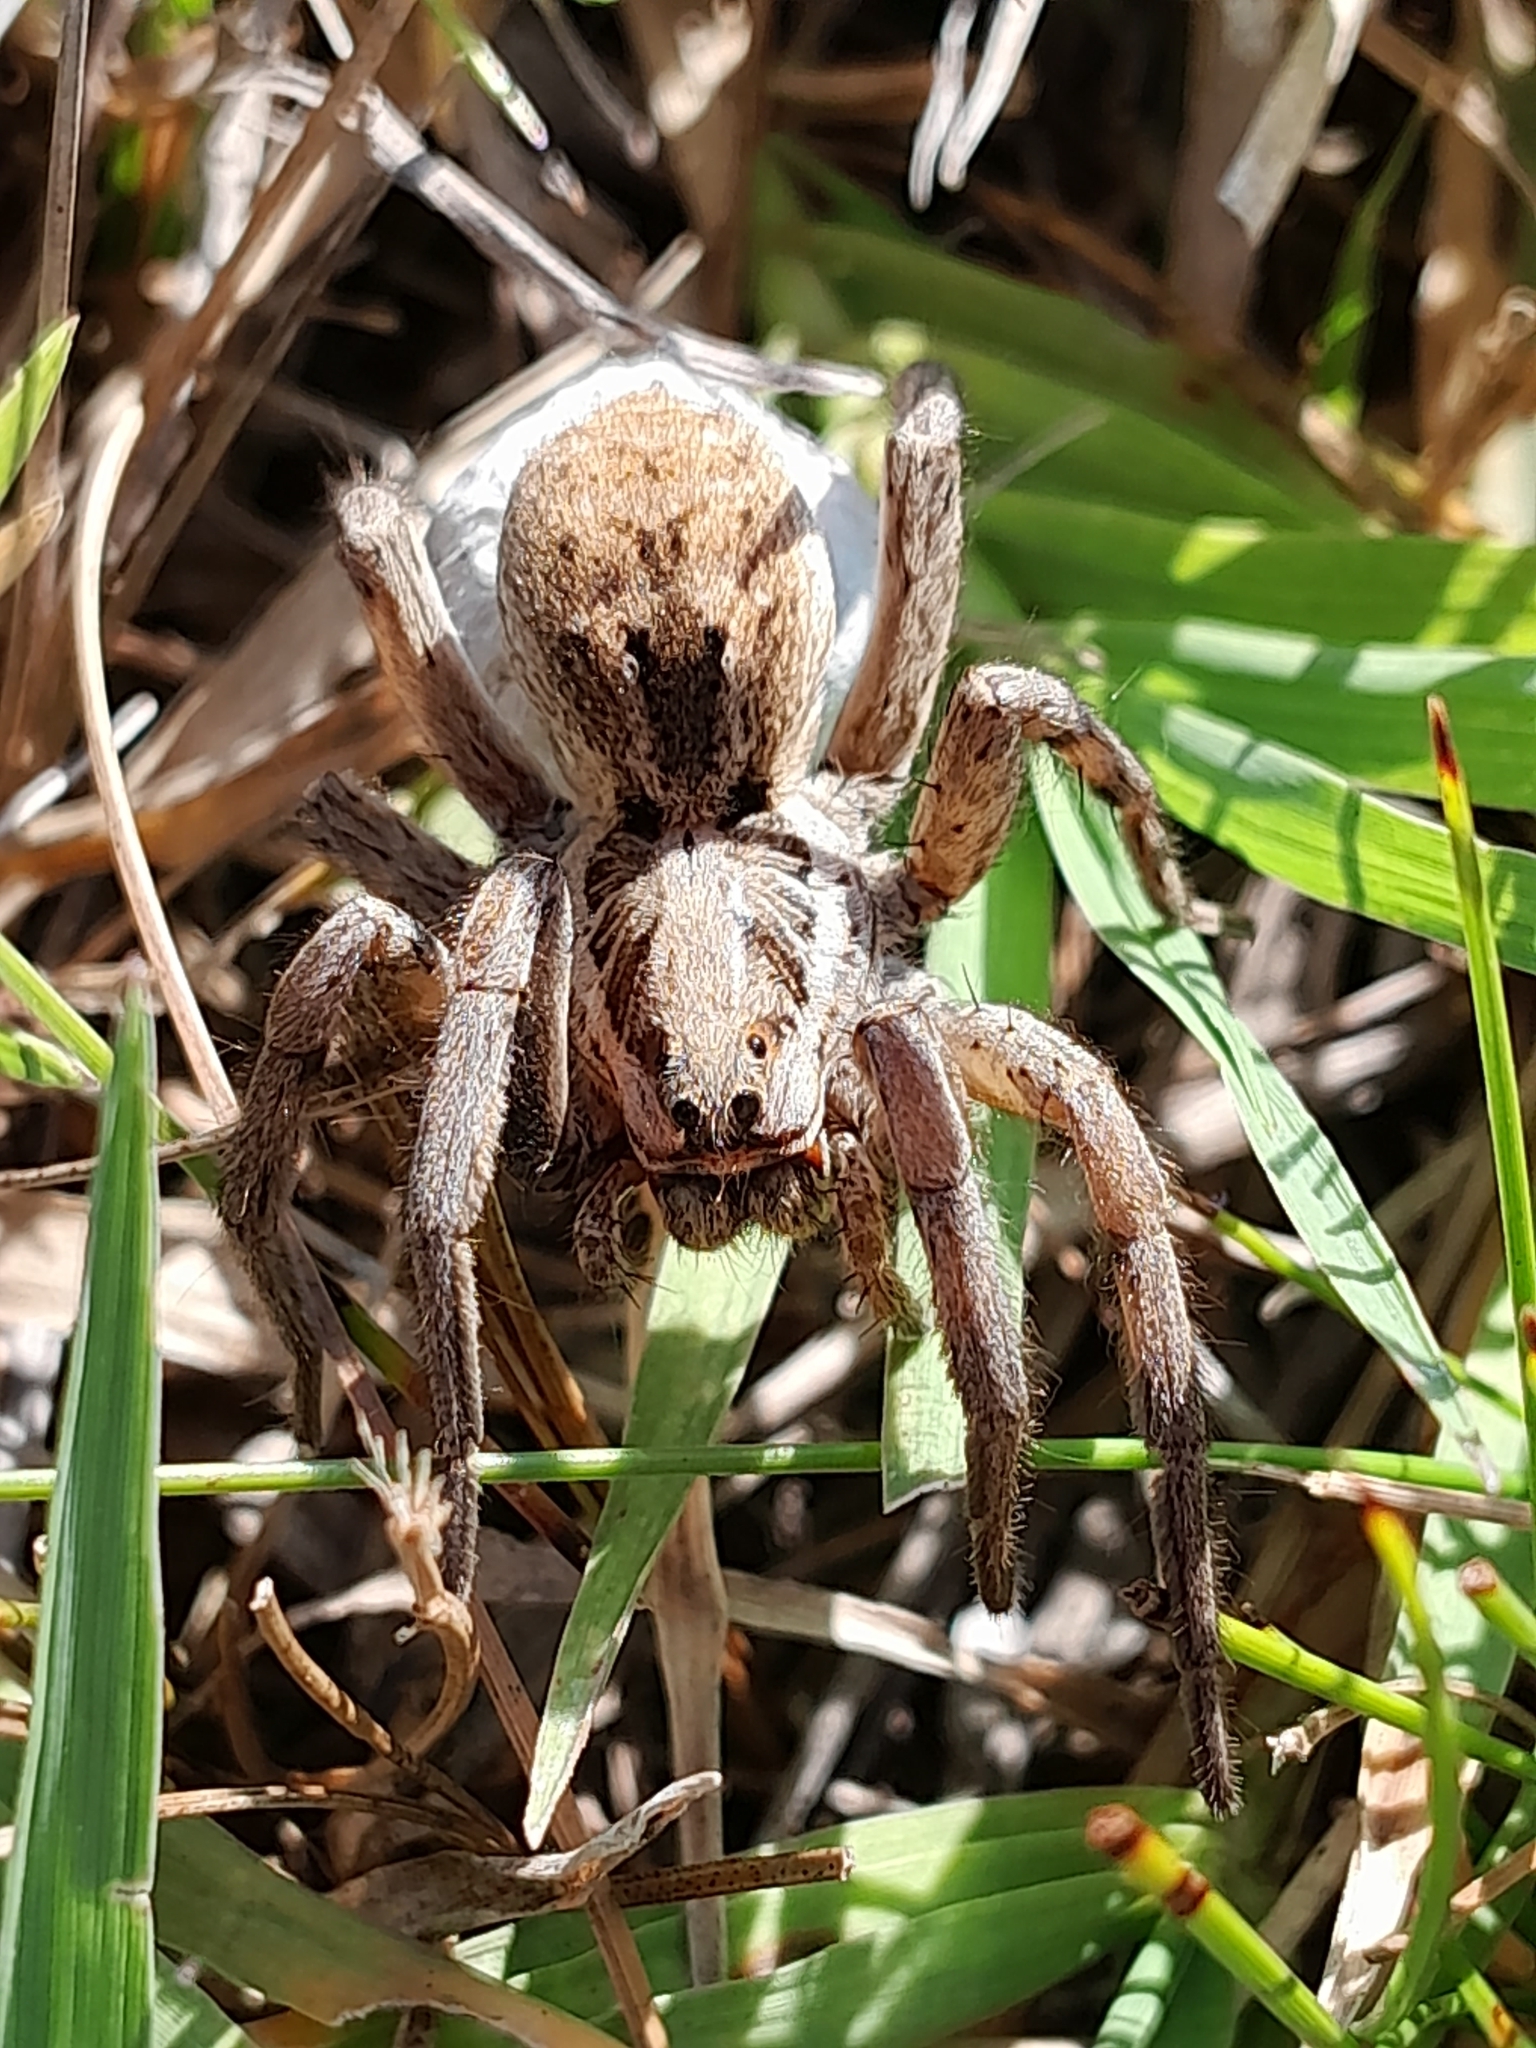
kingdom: Animalia
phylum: Arthropoda
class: Arachnida
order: Araneae
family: Lycosidae
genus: Hogna
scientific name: Hogna radiata
